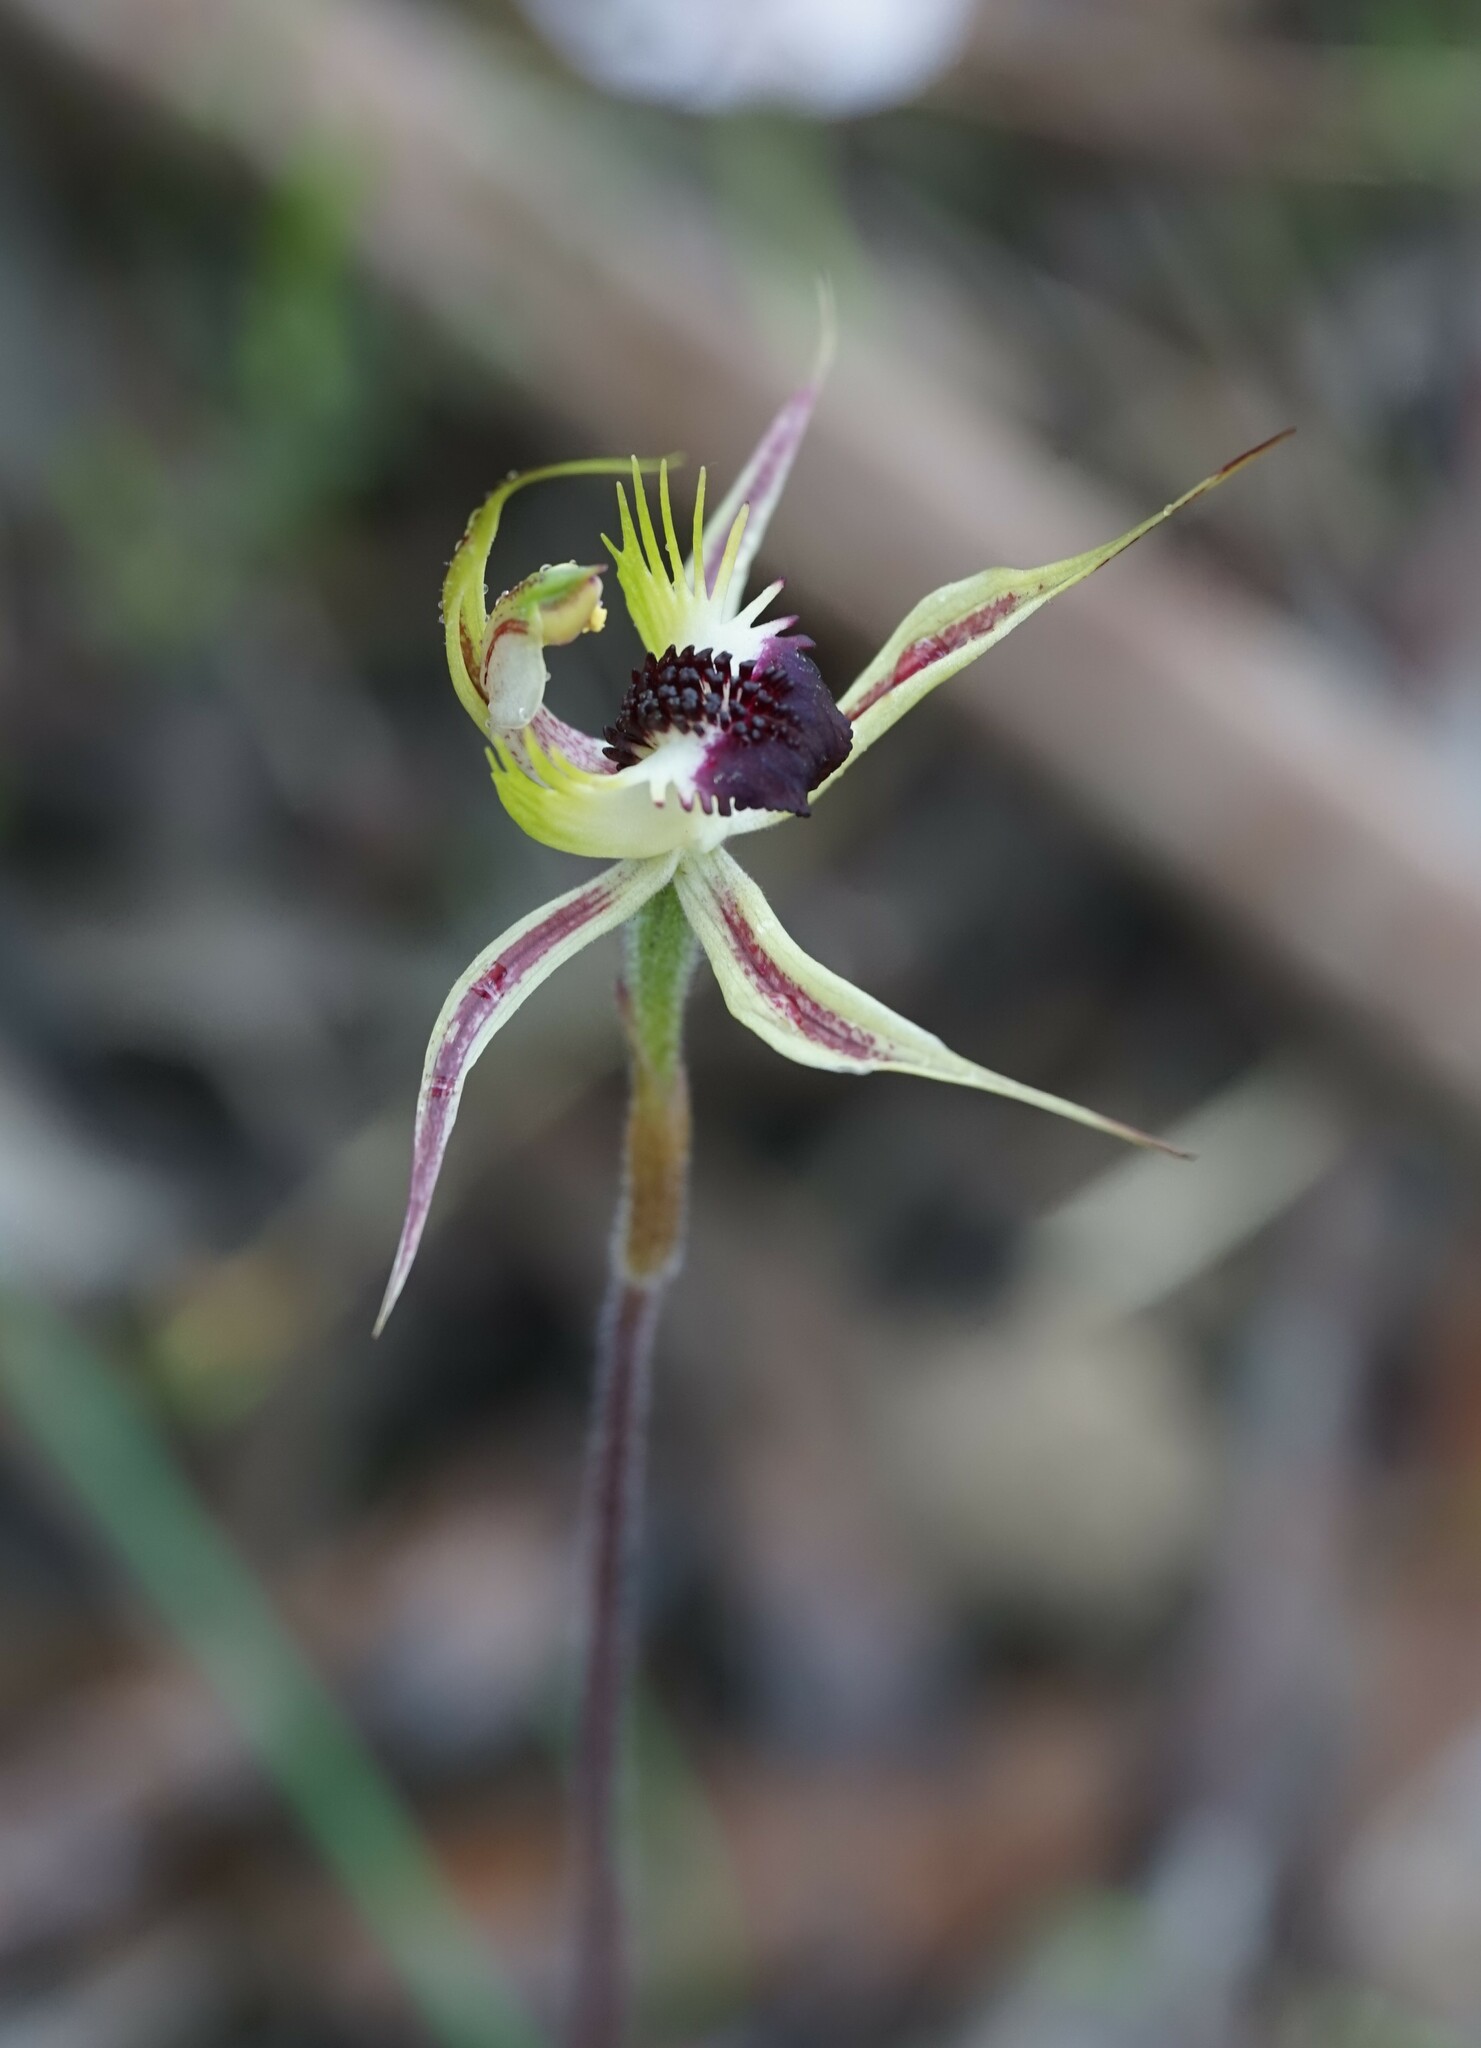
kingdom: Plantae
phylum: Tracheophyta
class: Liliopsida
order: Asparagales
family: Orchidaceae
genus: Caladenia
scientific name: Caladenia stricta
